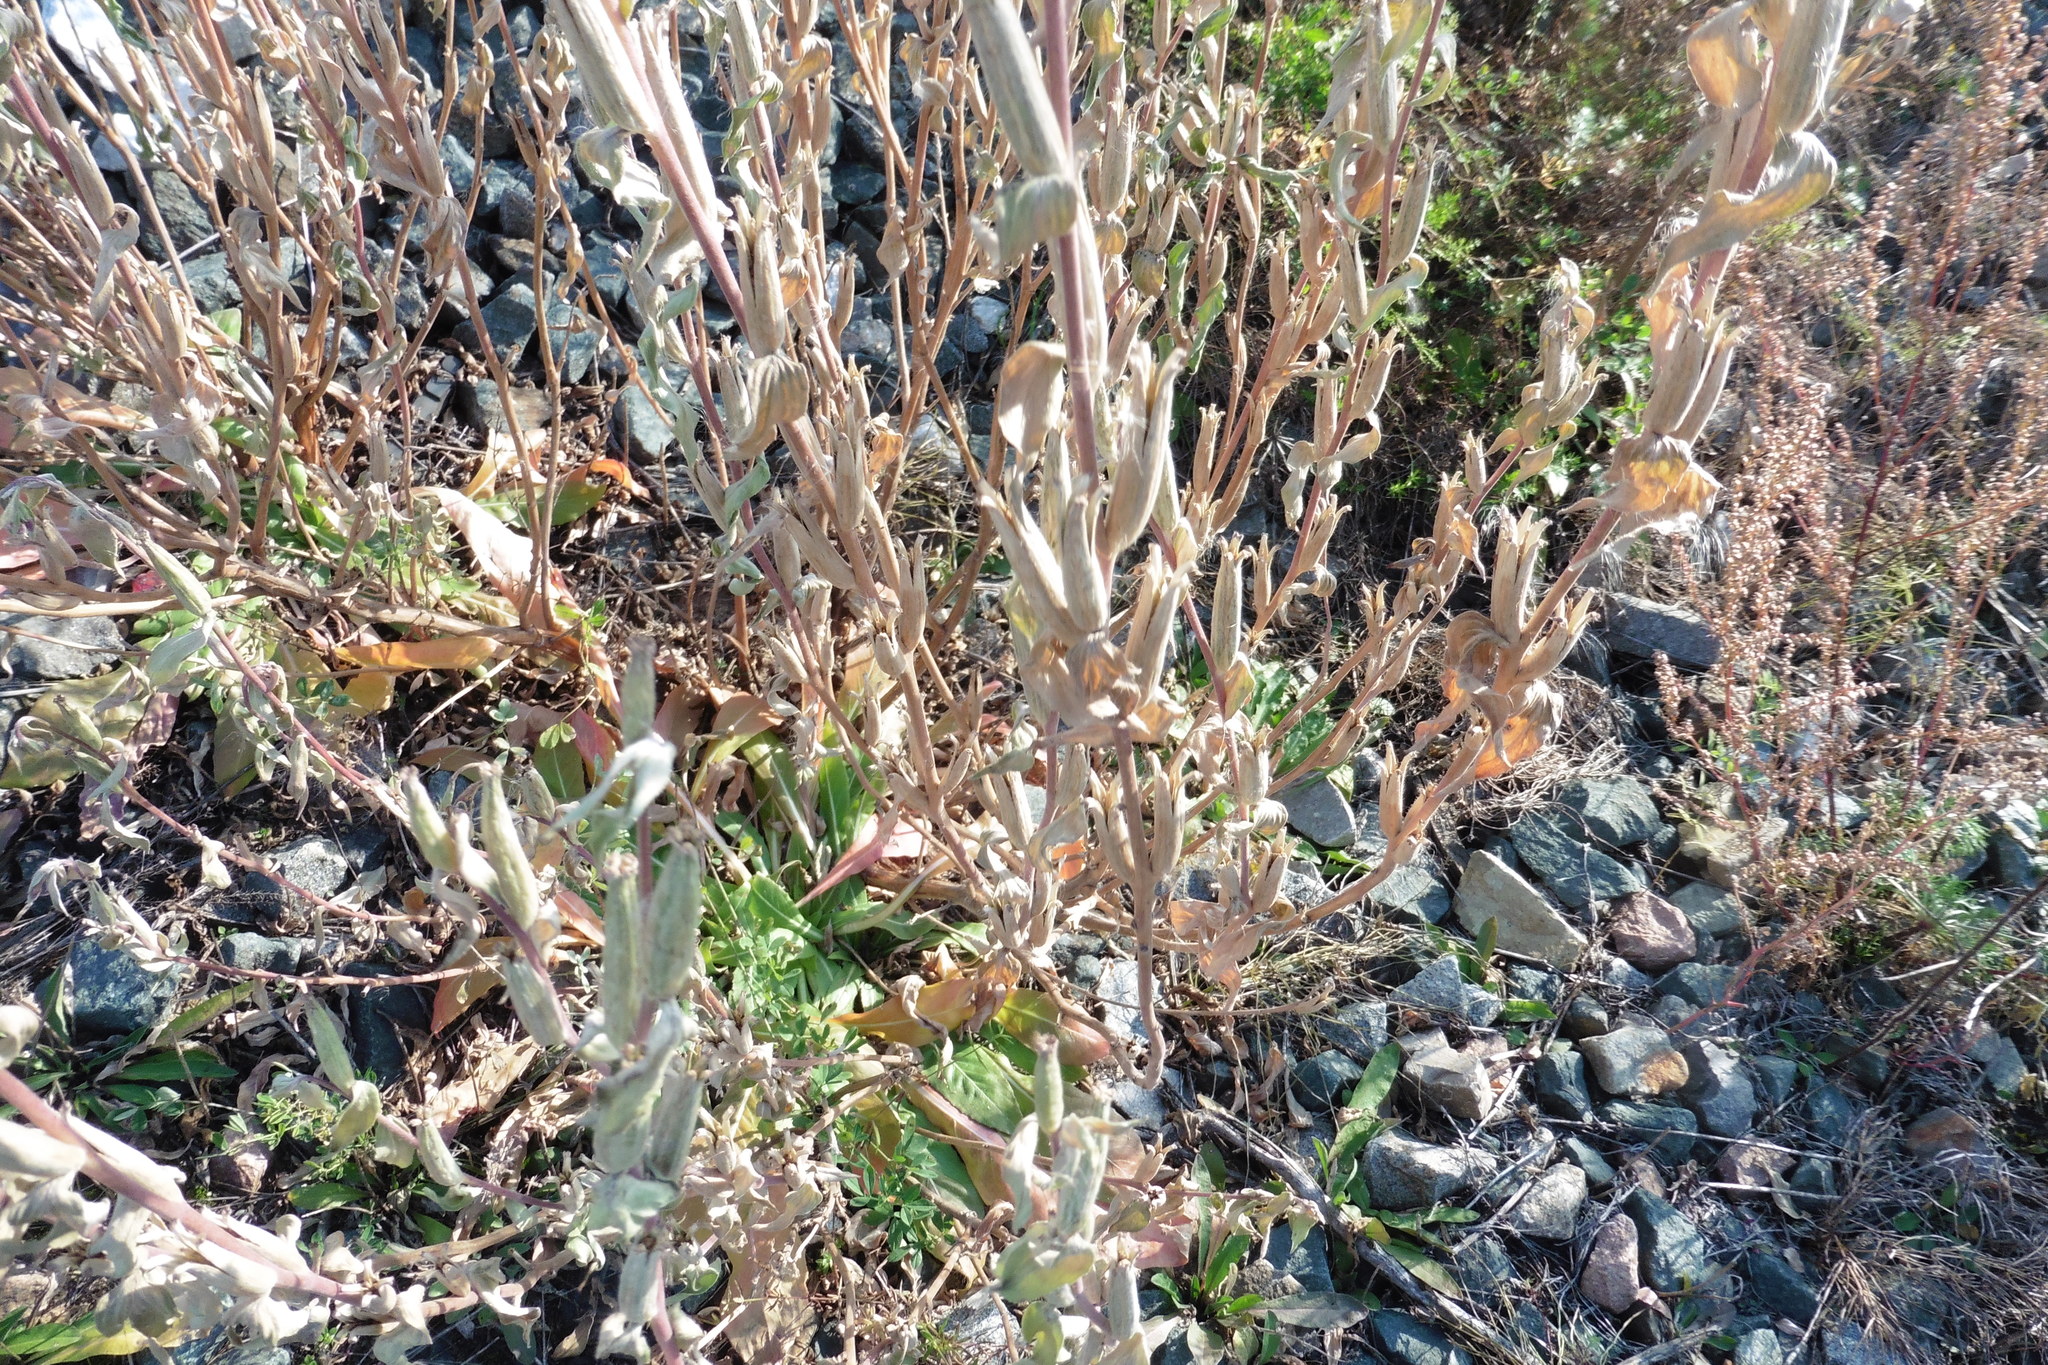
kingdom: Plantae
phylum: Tracheophyta
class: Magnoliopsida
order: Myrtales
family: Onagraceae
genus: Oenothera
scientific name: Oenothera villosa
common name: Hairy evening-primrose
